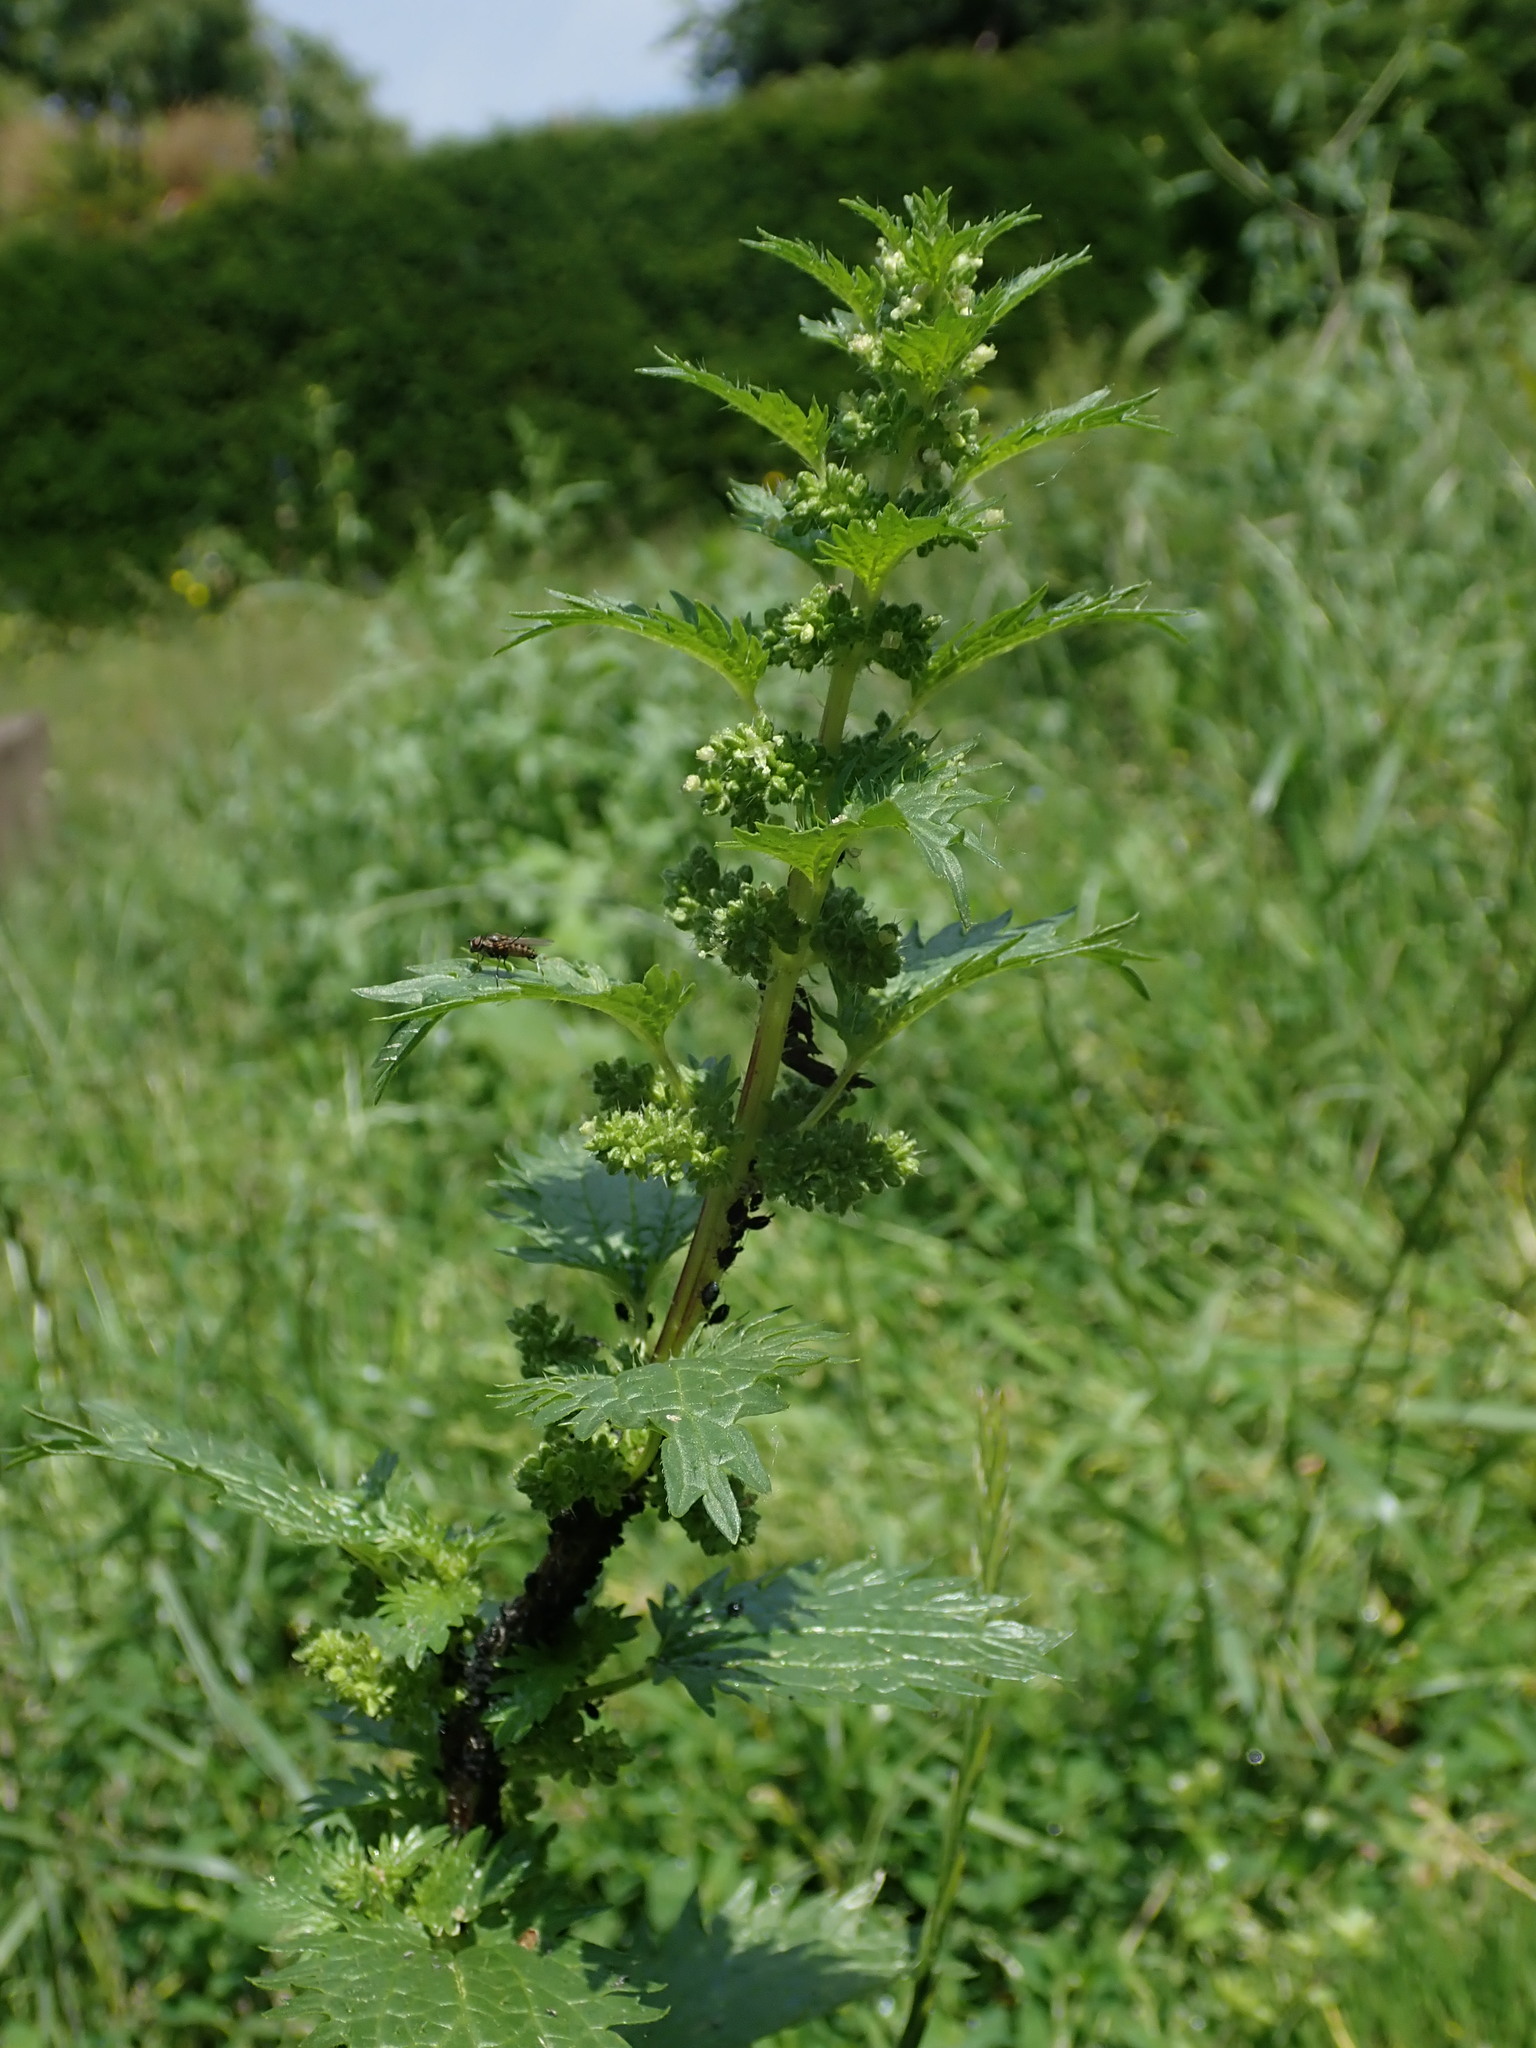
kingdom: Plantae
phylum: Tracheophyta
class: Magnoliopsida
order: Rosales
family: Urticaceae
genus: Urtica
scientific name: Urtica urens
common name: Dwarf nettle
